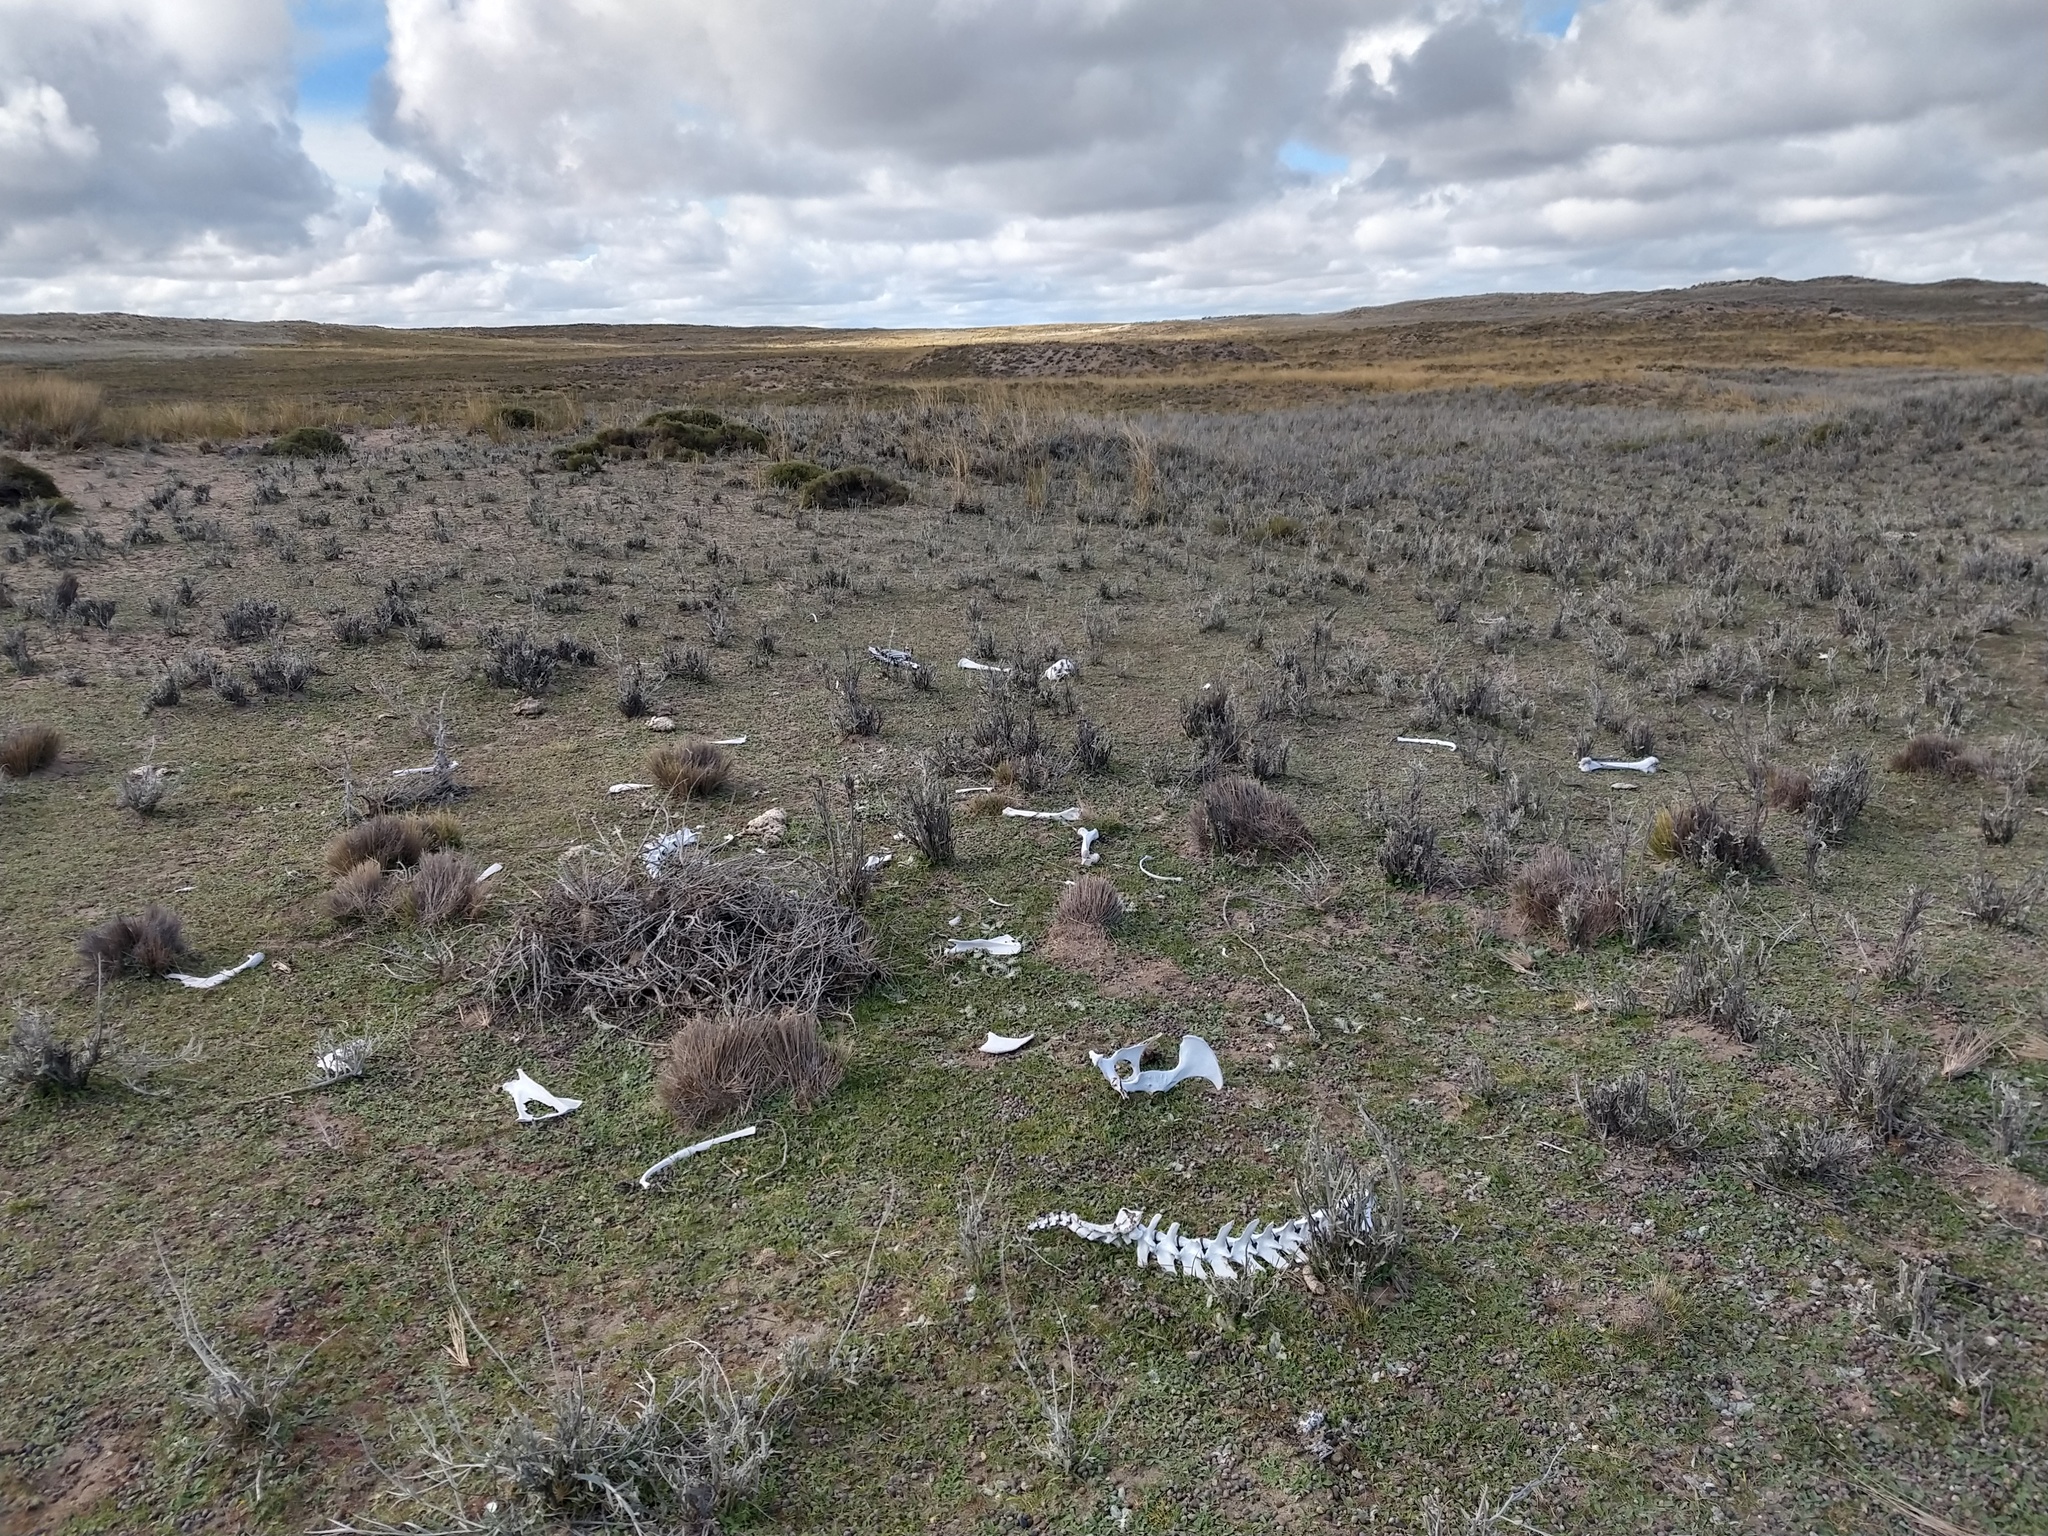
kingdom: Animalia
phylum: Chordata
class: Mammalia
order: Artiodactyla
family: Camelidae
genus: Lama
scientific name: Lama glama
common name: Llama
